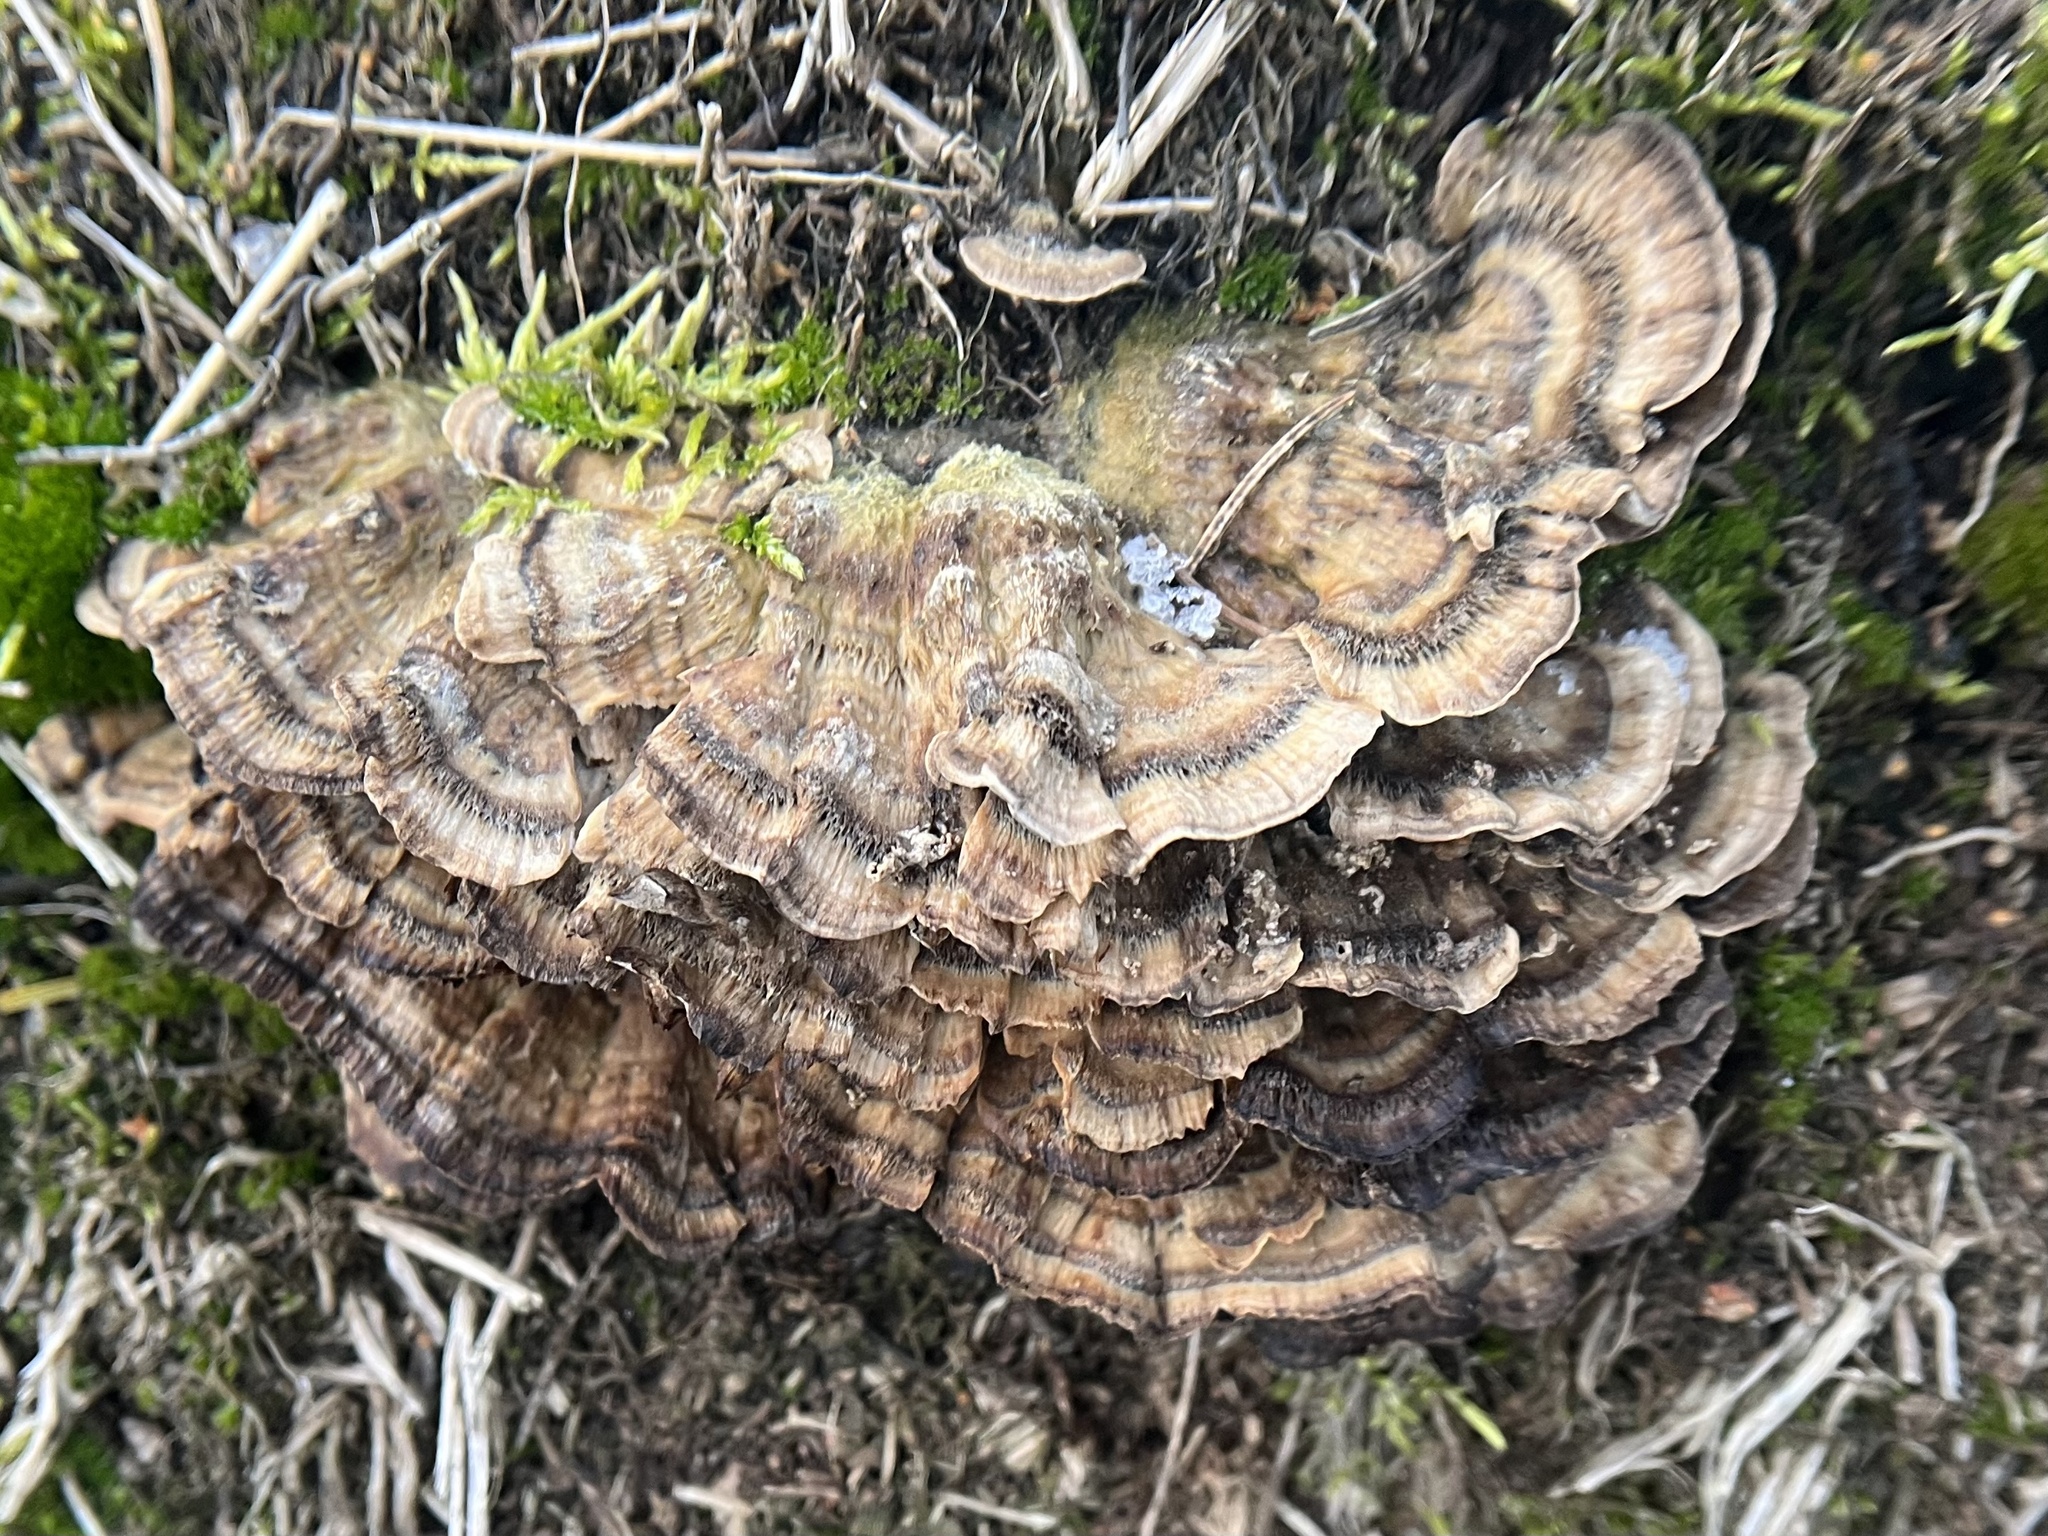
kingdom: Fungi
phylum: Basidiomycota
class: Agaricomycetes
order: Polyporales
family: Phanerochaetaceae
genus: Bjerkandera
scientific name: Bjerkandera adusta
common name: Smoky bracket
